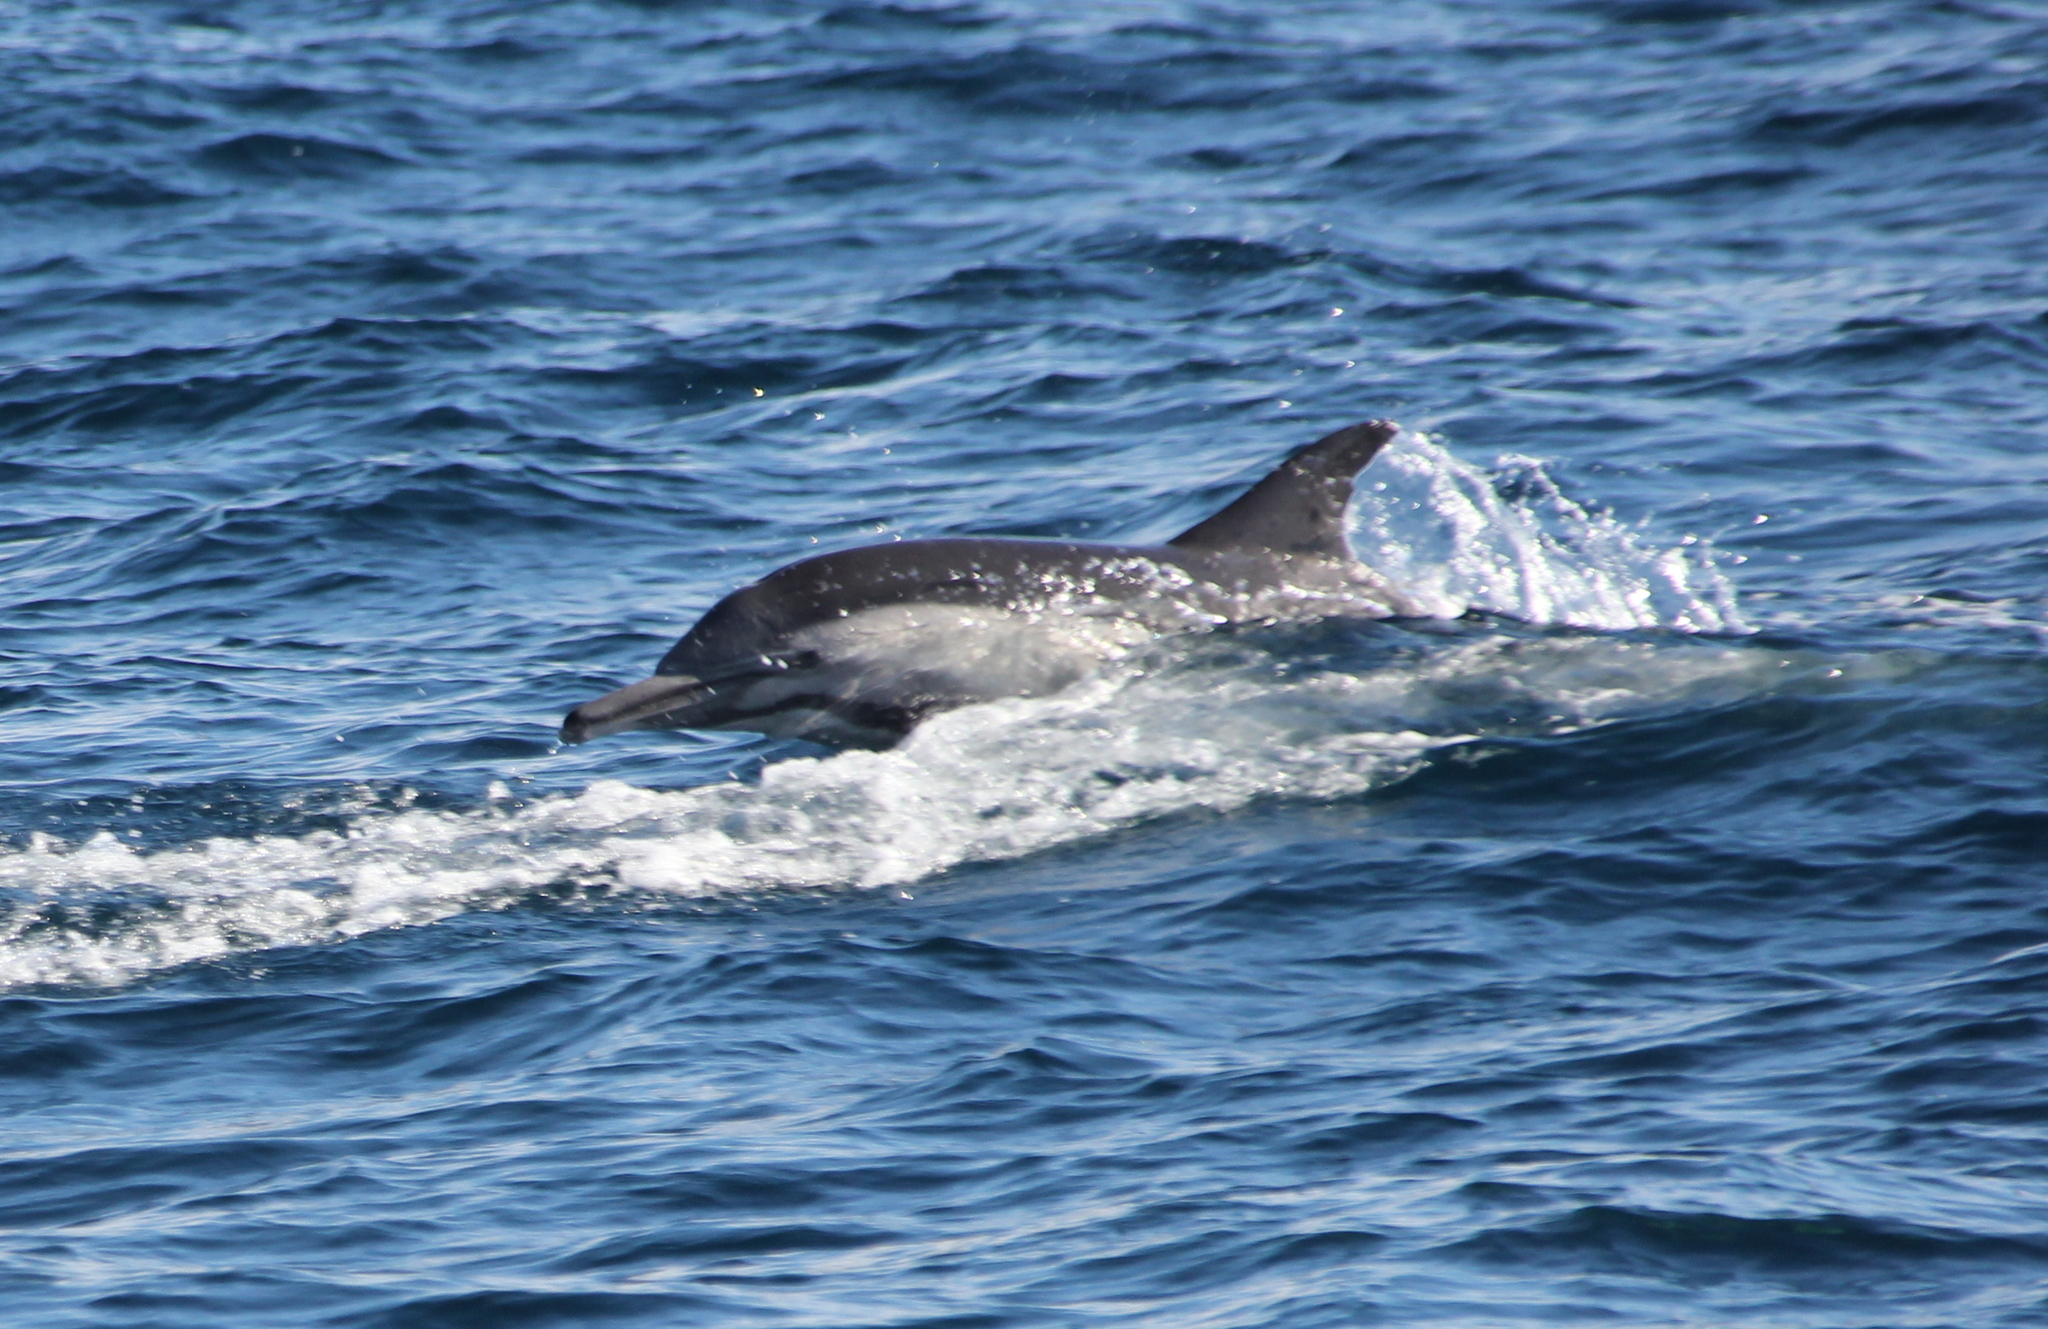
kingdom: Animalia
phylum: Chordata
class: Mammalia
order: Cetacea
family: Delphinidae
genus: Delphinus
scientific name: Delphinus delphis
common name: Common dolphin
